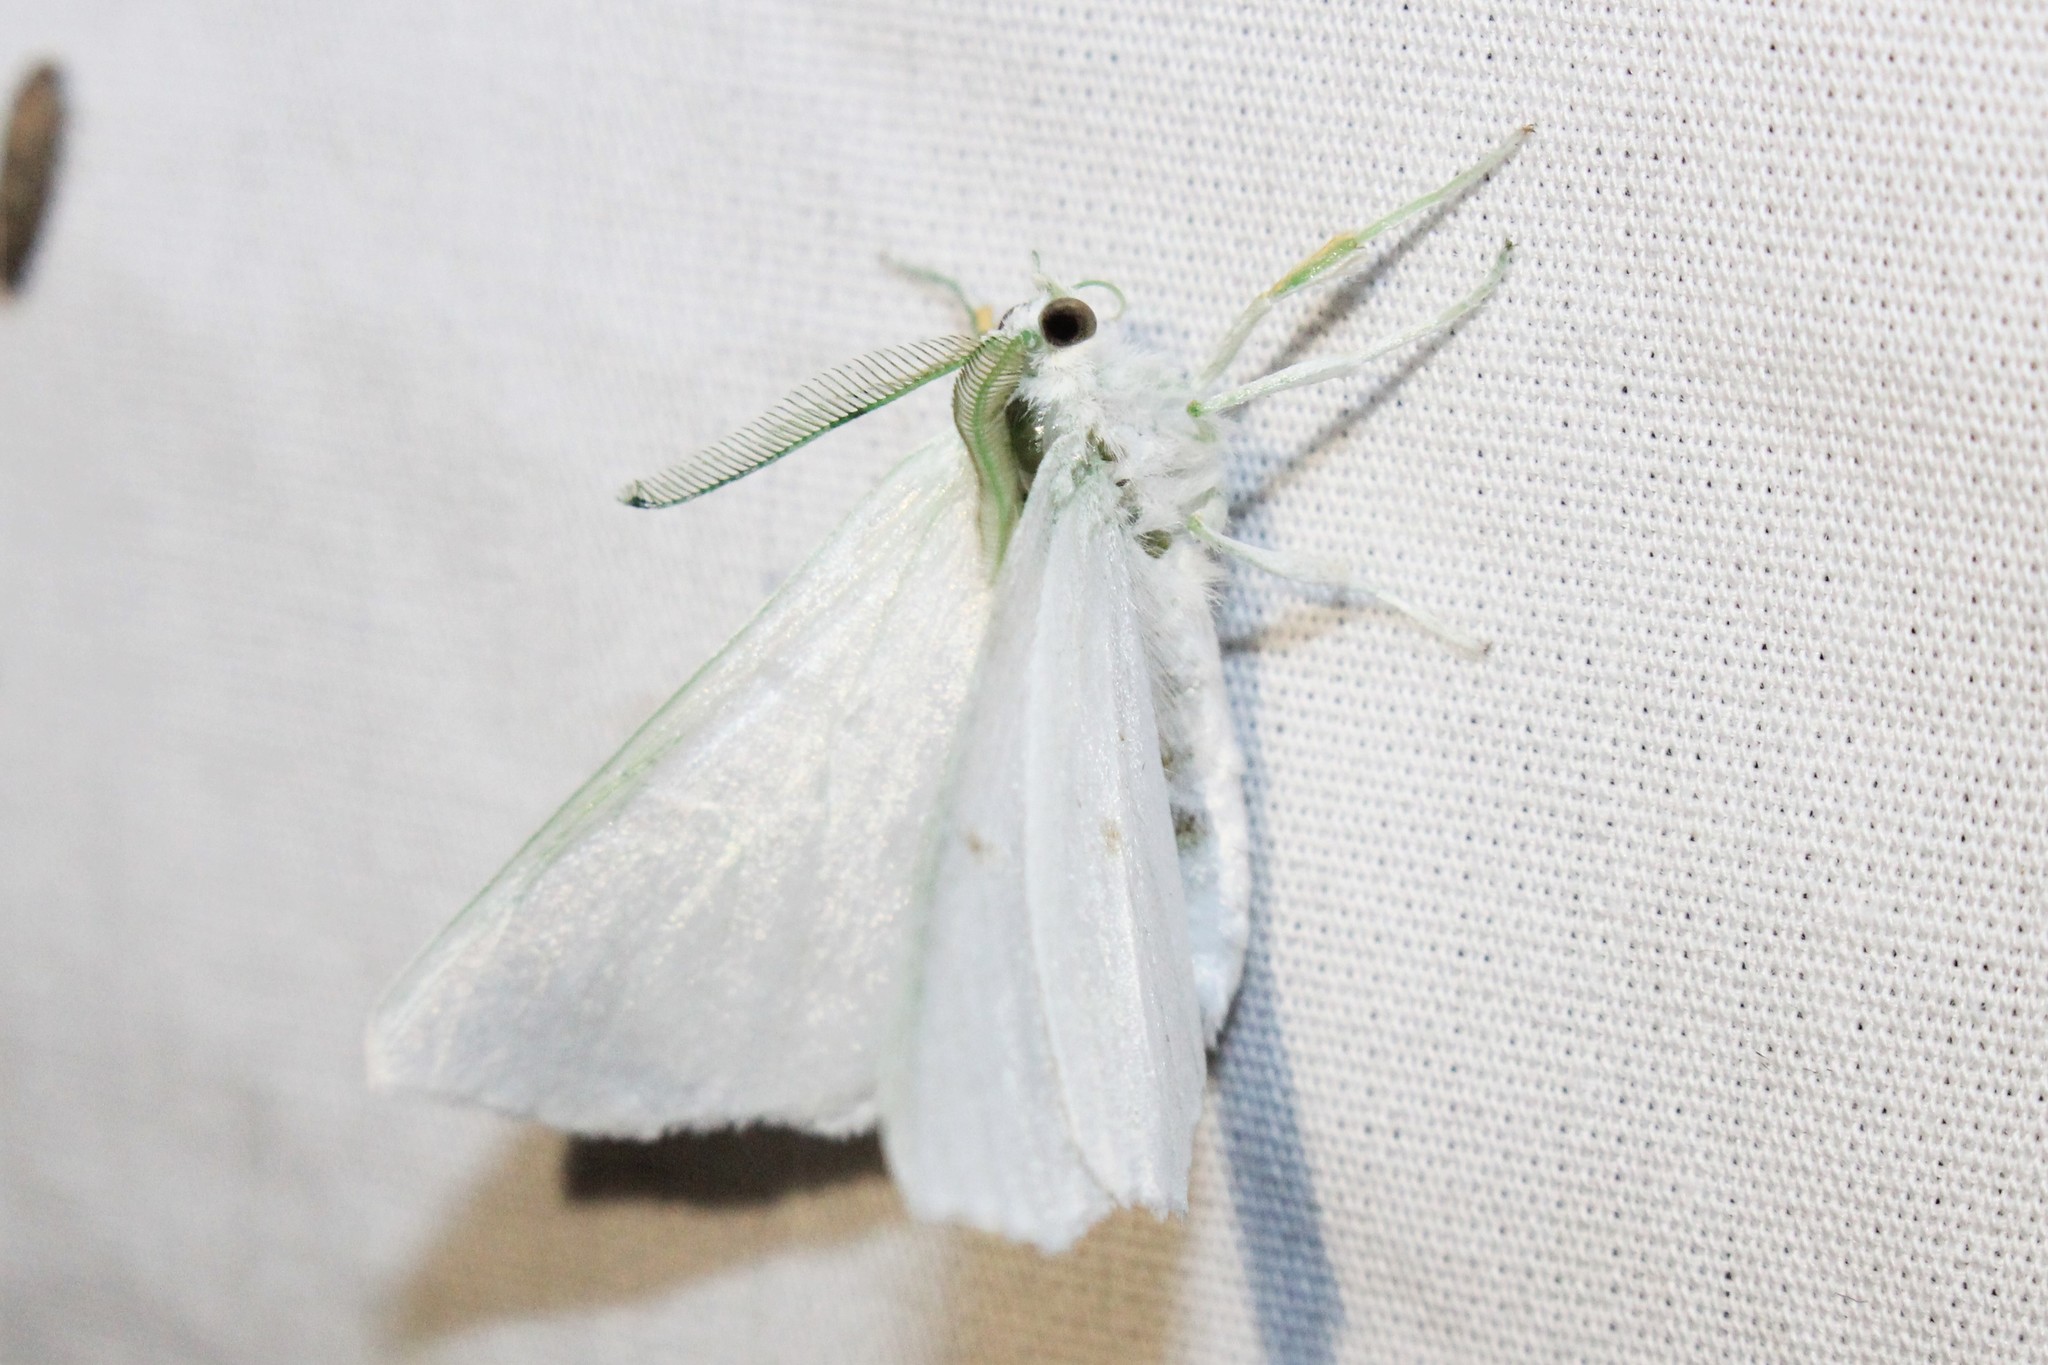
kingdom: Animalia
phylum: Arthropoda
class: Insecta
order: Lepidoptera
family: Geometridae
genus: Ennomos
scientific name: Ennomos subsignaria
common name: Elm spanworm
